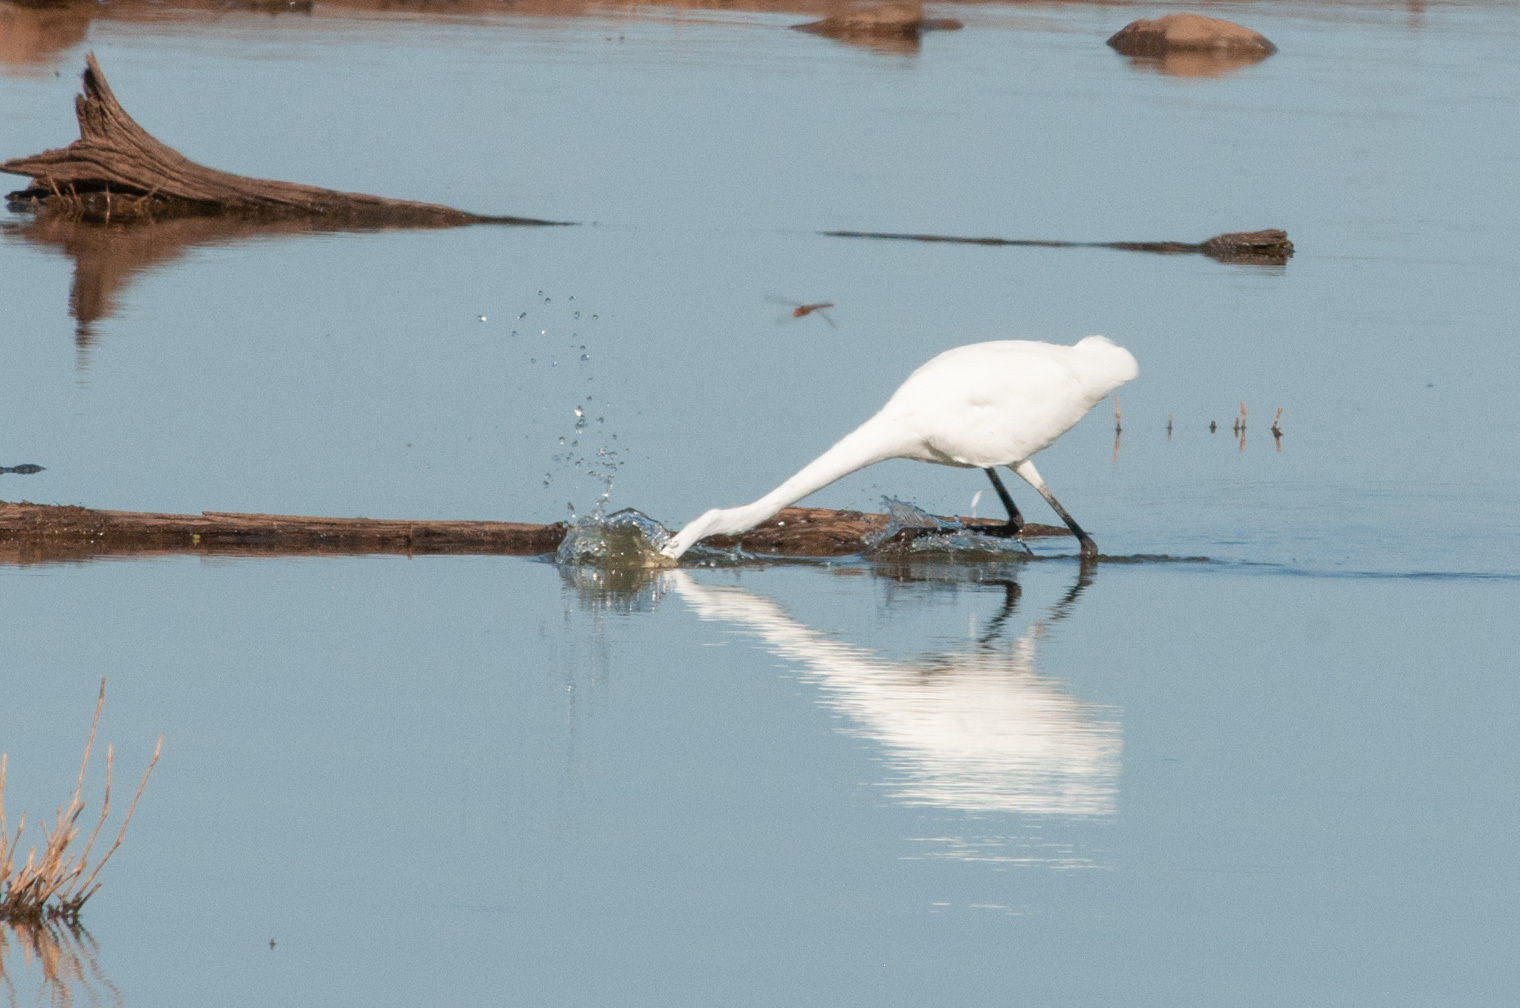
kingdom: Animalia
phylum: Chordata
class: Aves
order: Pelecaniformes
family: Ardeidae
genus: Ardea
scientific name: Ardea alba
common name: Great egret
